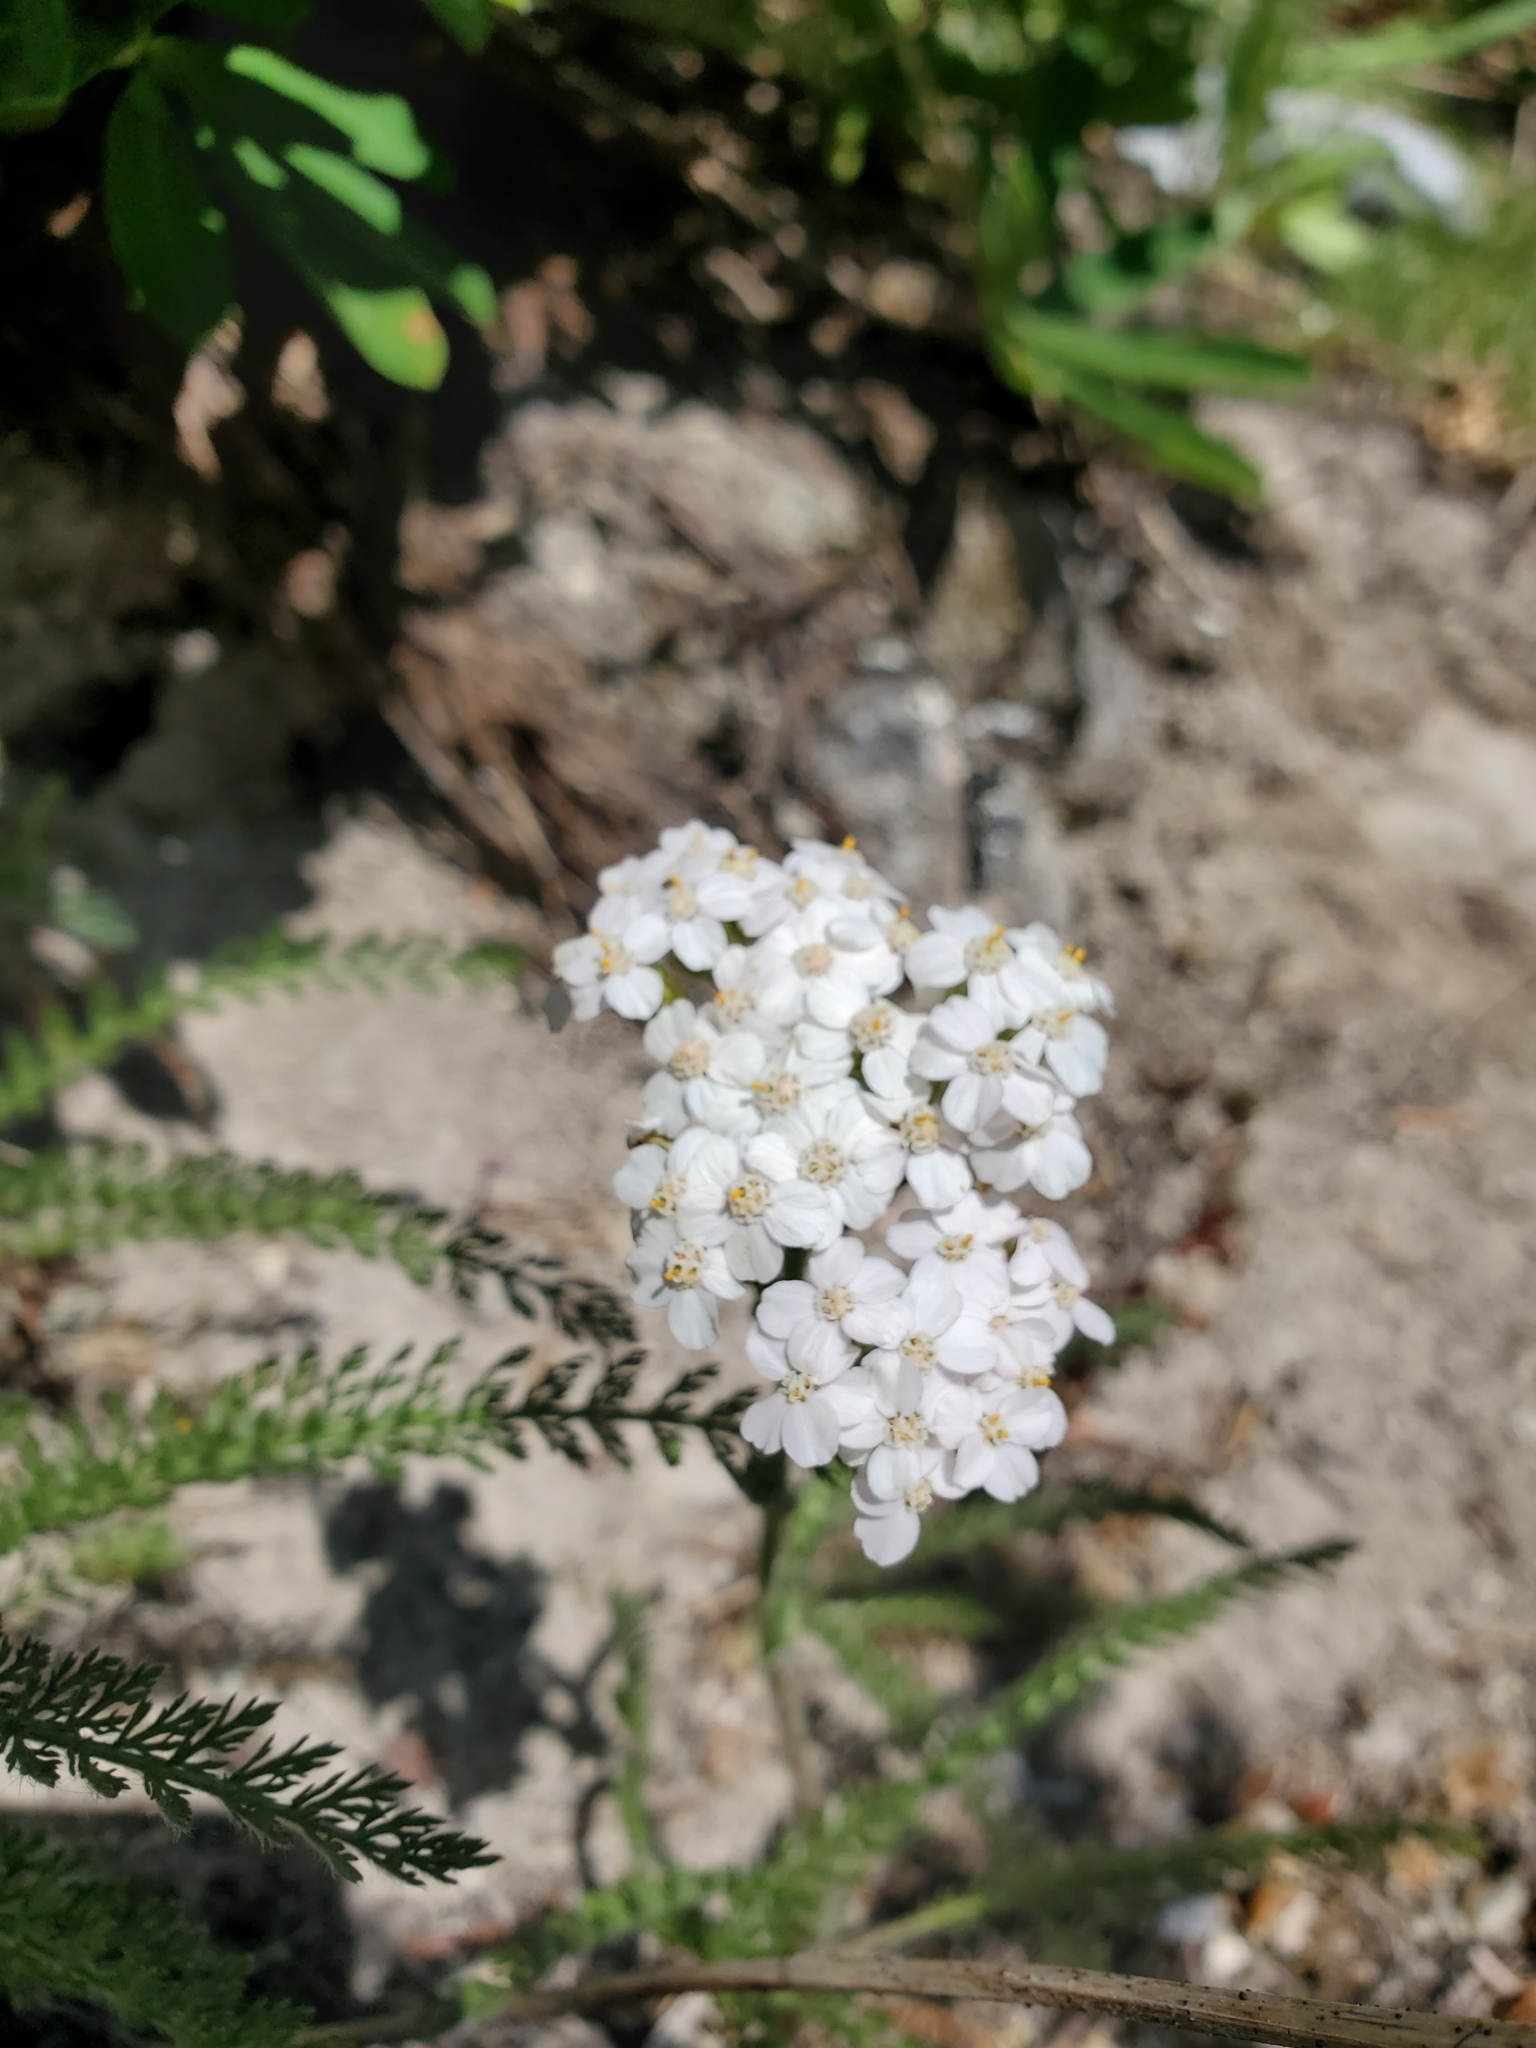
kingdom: Plantae
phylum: Tracheophyta
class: Magnoliopsida
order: Asterales
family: Asteraceae
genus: Achillea
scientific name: Achillea millefolium
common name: Yarrow
